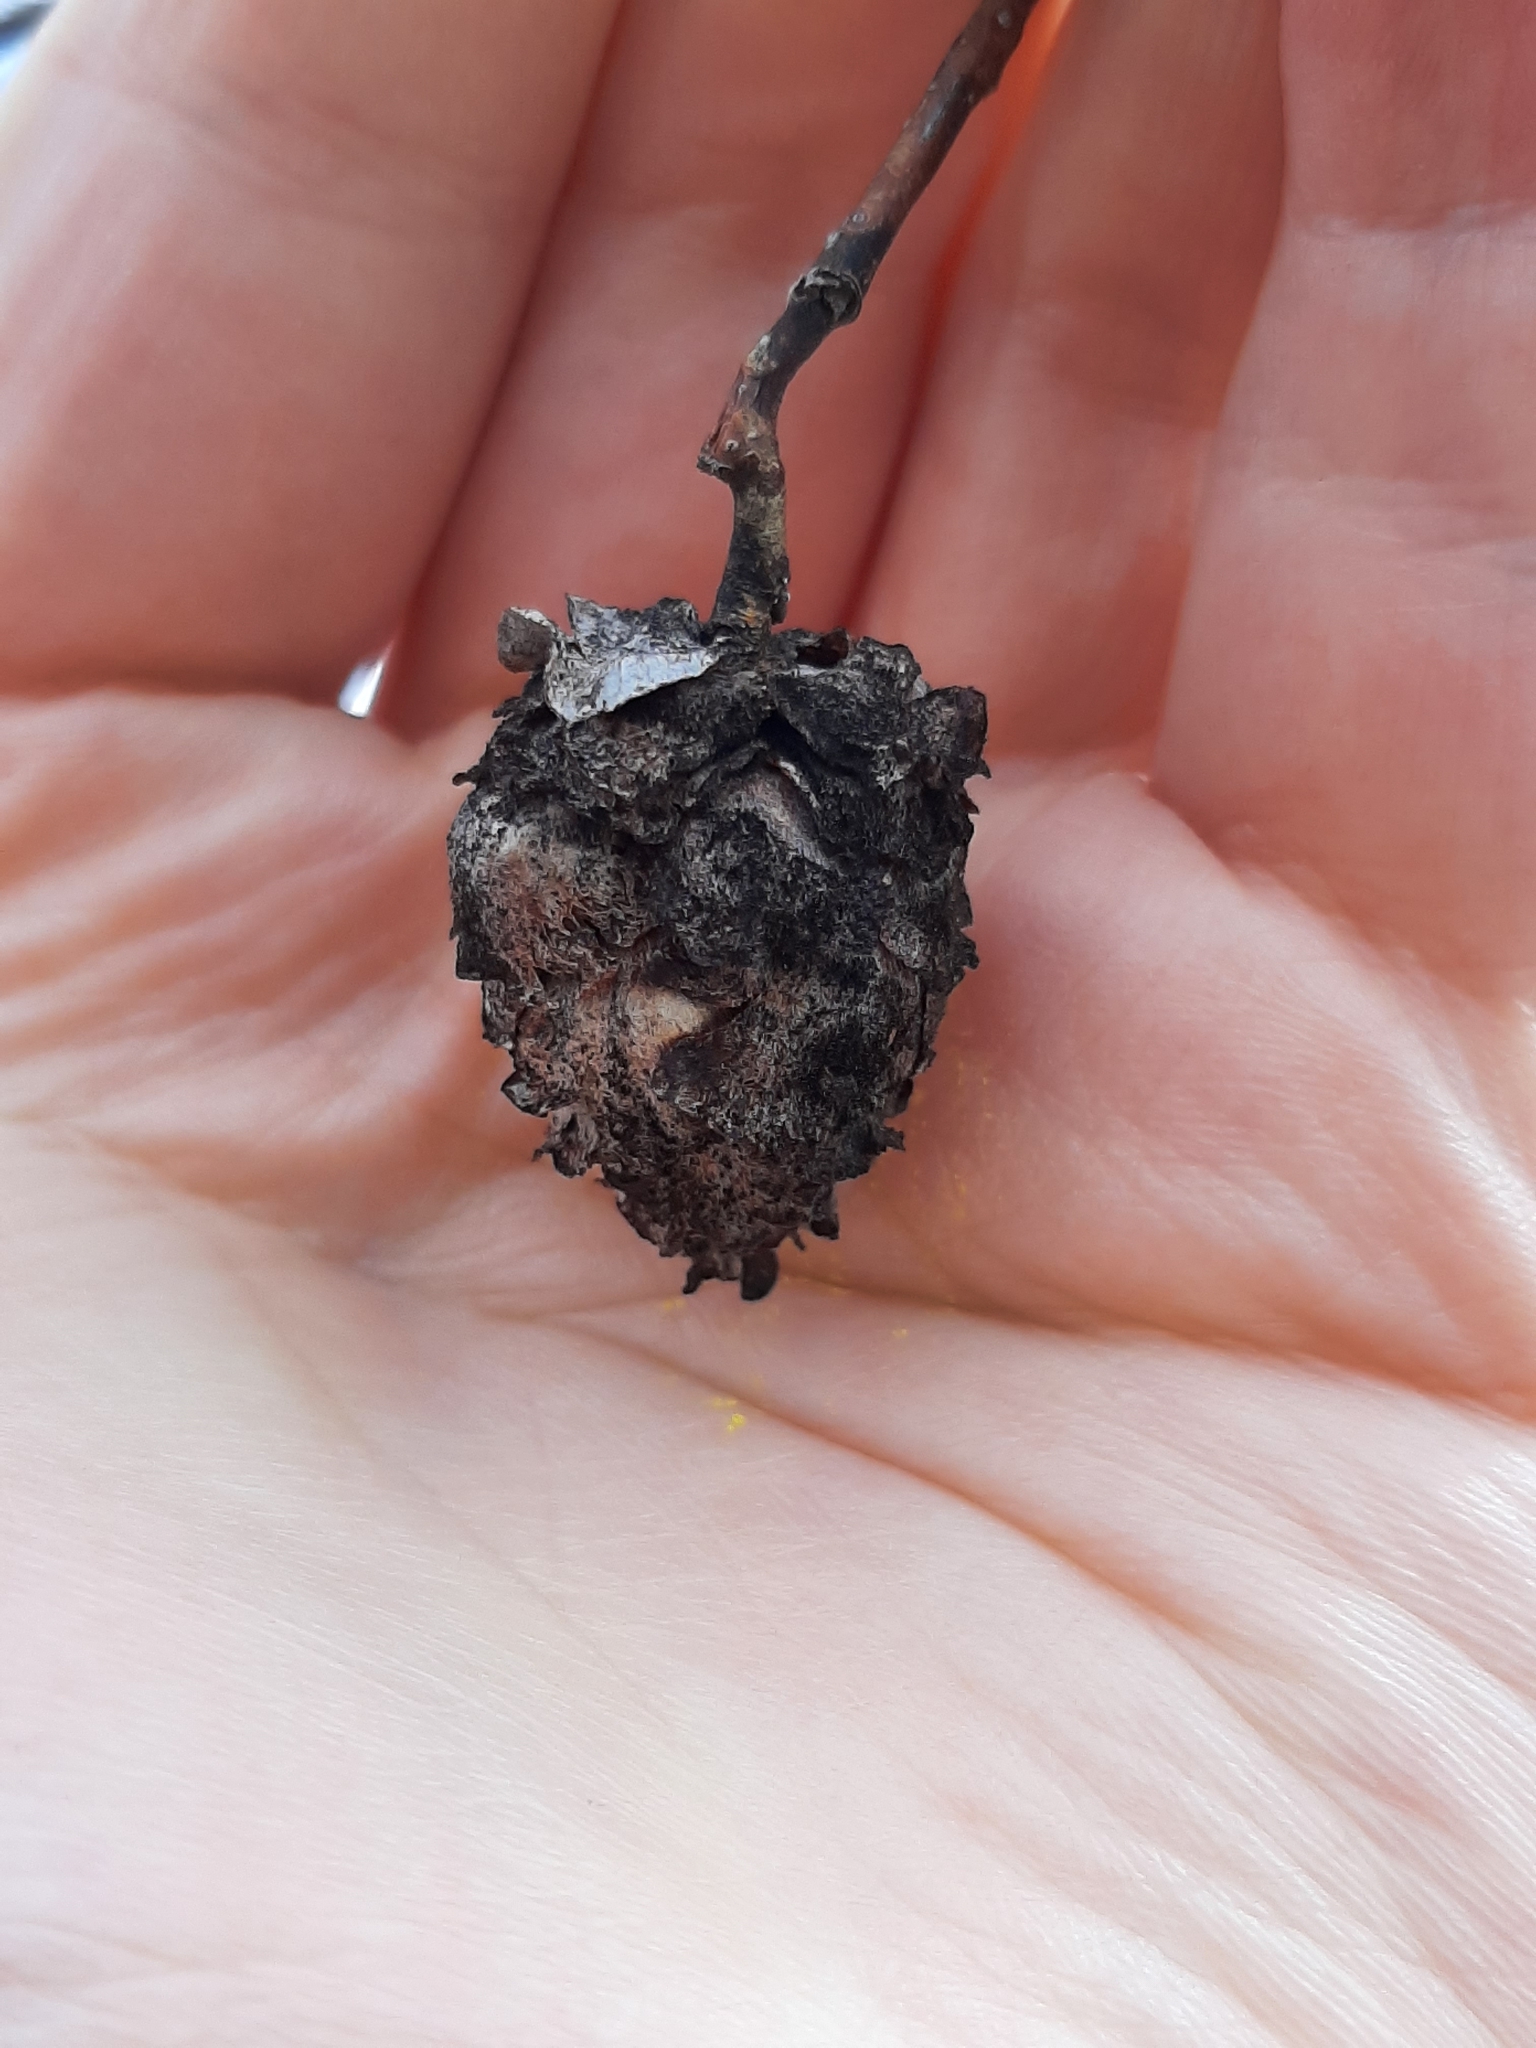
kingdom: Animalia
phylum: Arthropoda
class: Insecta
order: Diptera
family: Cecidomyiidae
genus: Rabdophaga
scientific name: Rabdophaga strobiloides
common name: Willow pinecone gall midge
